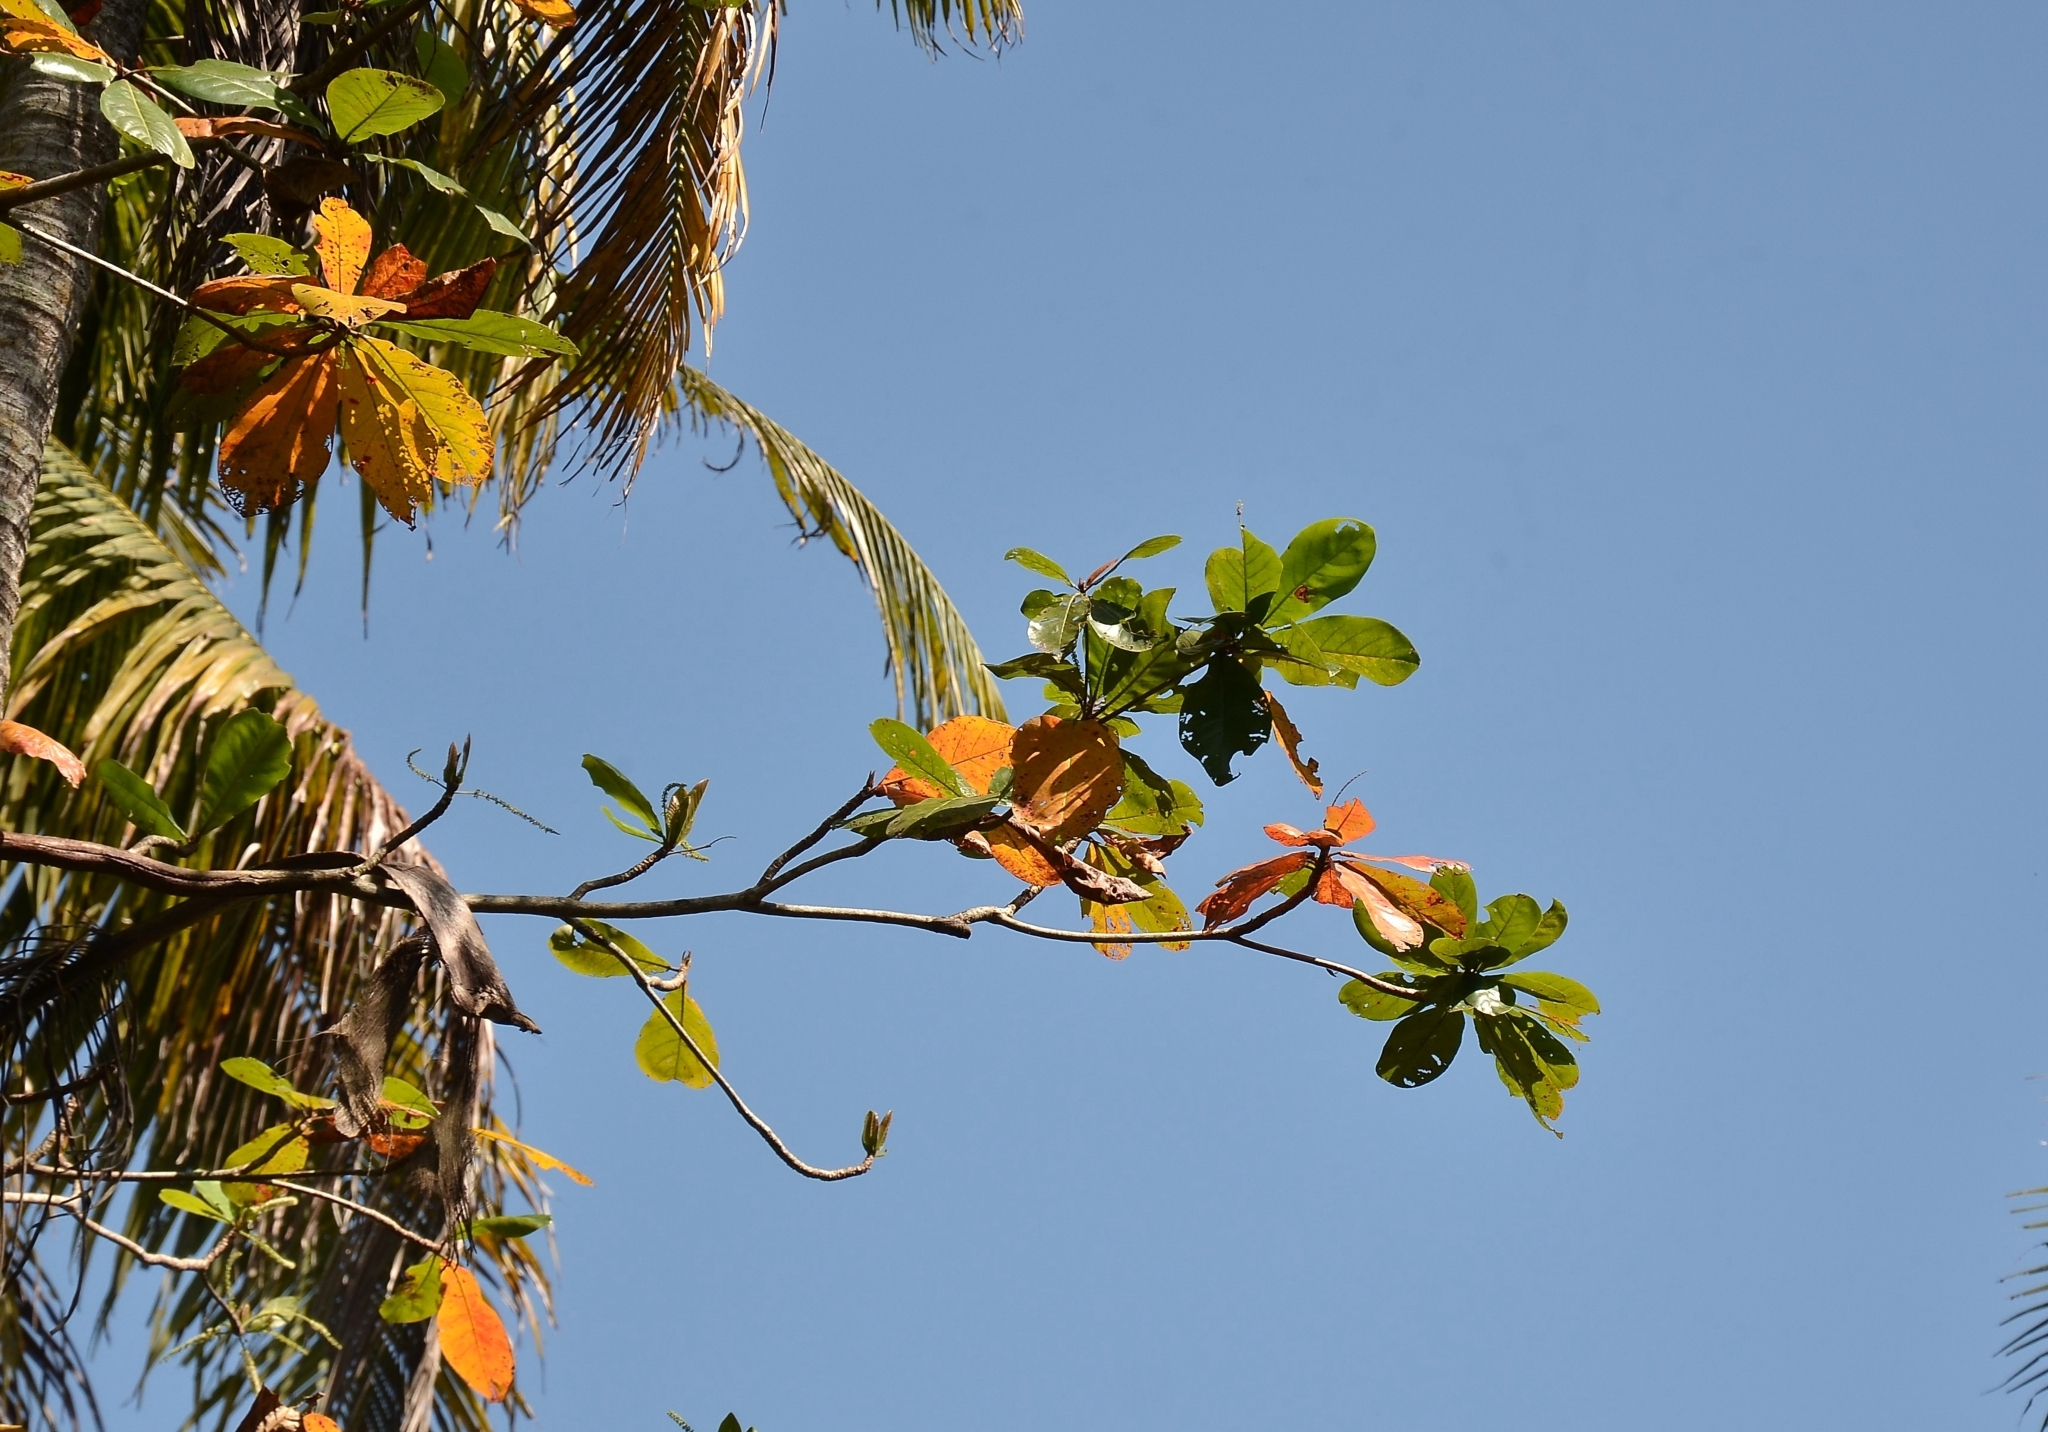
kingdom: Plantae
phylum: Tracheophyta
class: Magnoliopsida
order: Myrtales
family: Combretaceae
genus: Terminalia
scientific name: Terminalia catappa
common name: Tropical almond
